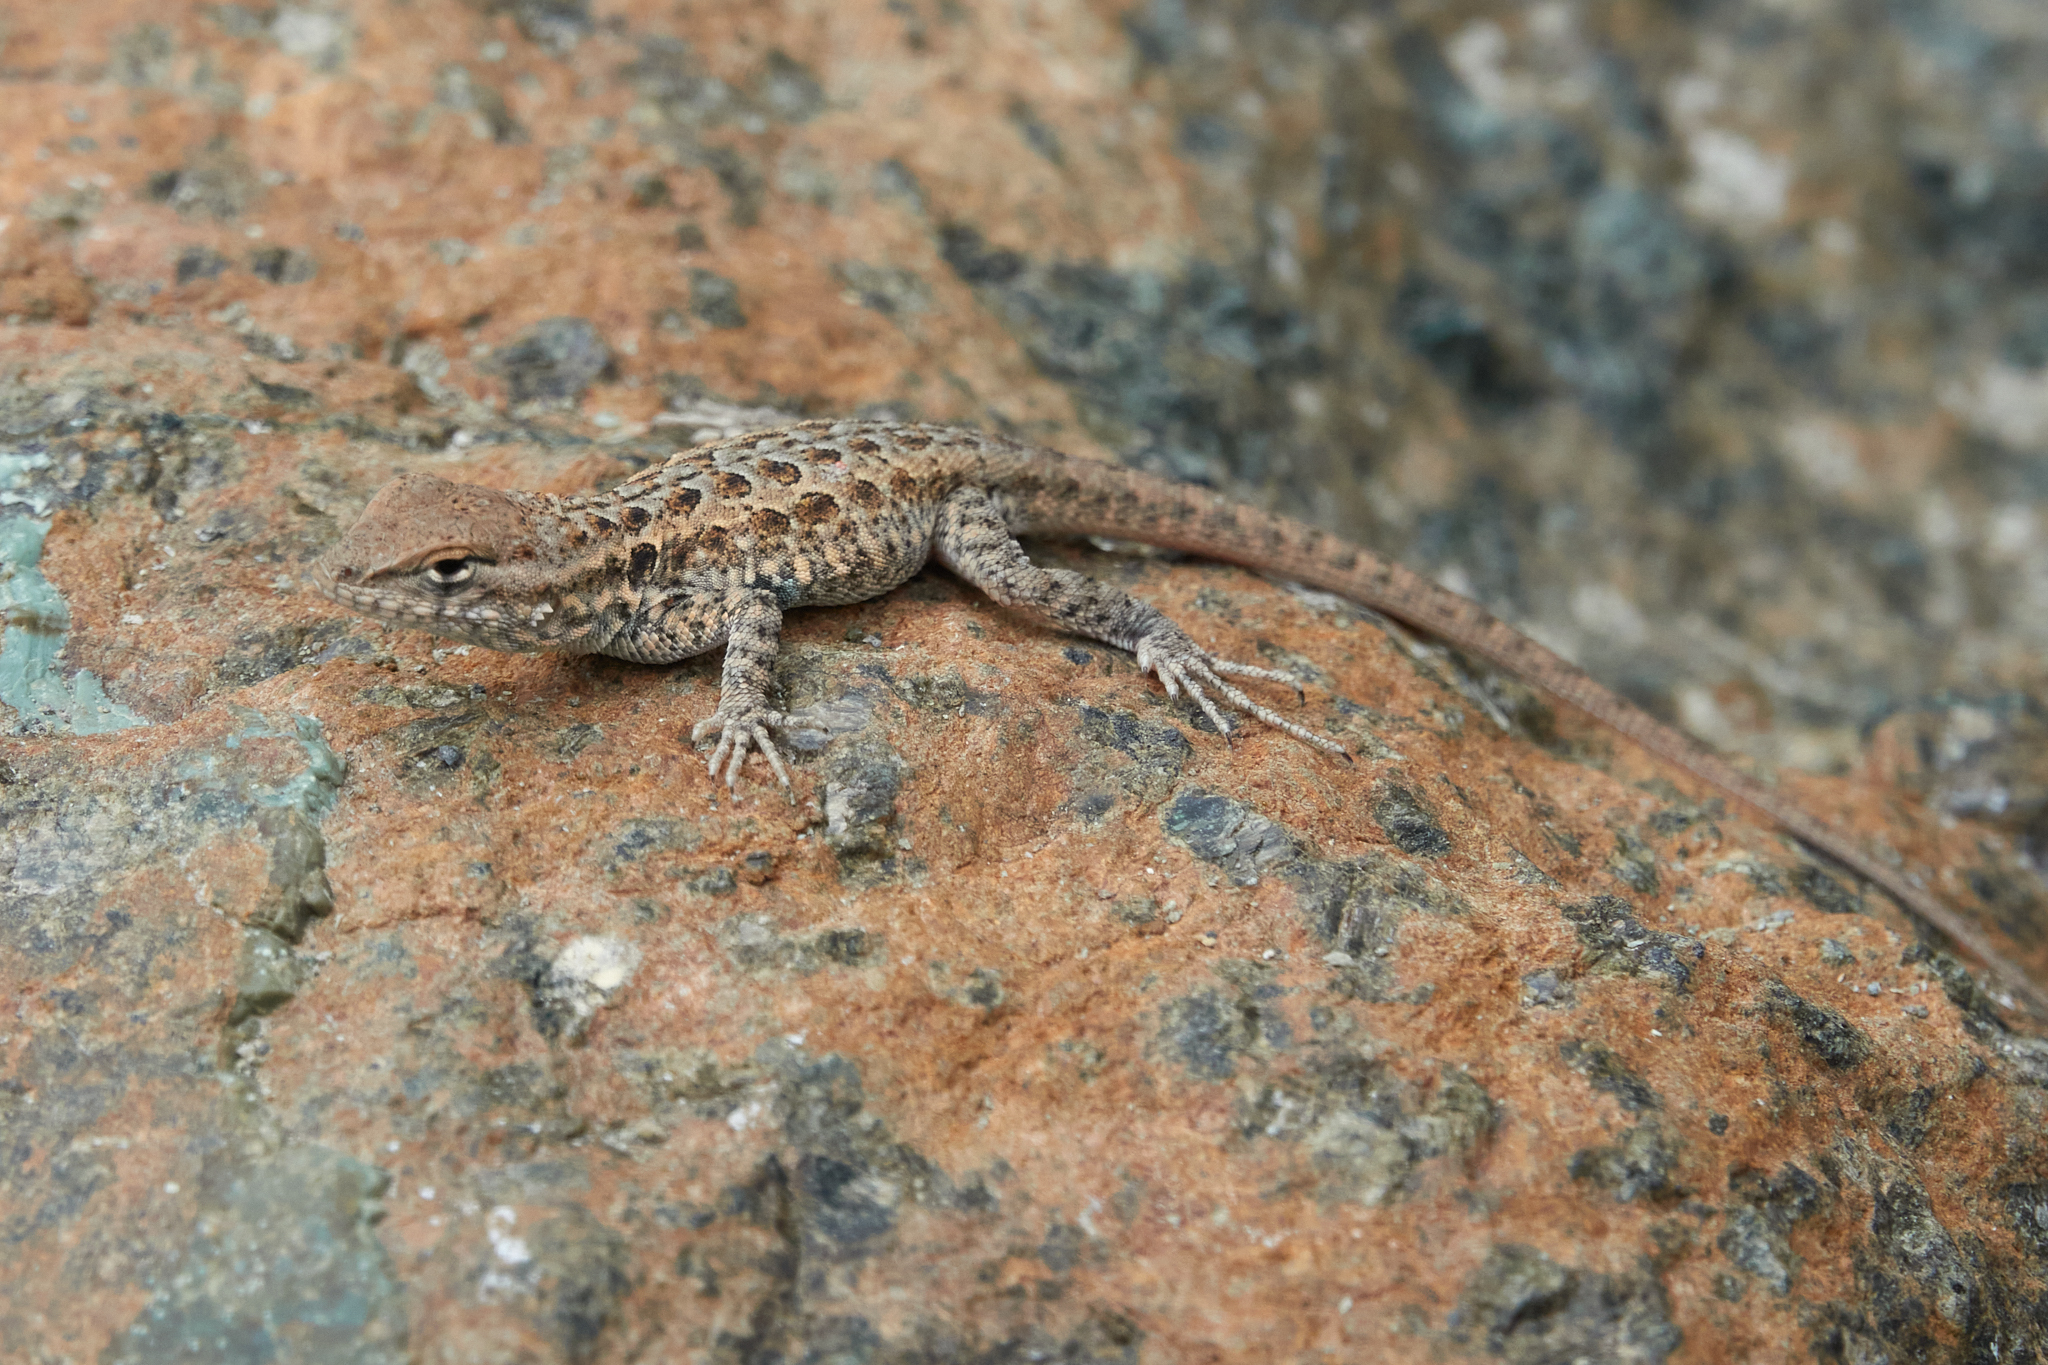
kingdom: Animalia
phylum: Chordata
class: Squamata
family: Phrynosomatidae
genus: Uta
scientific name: Uta stansburiana
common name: Side-blotched lizard
